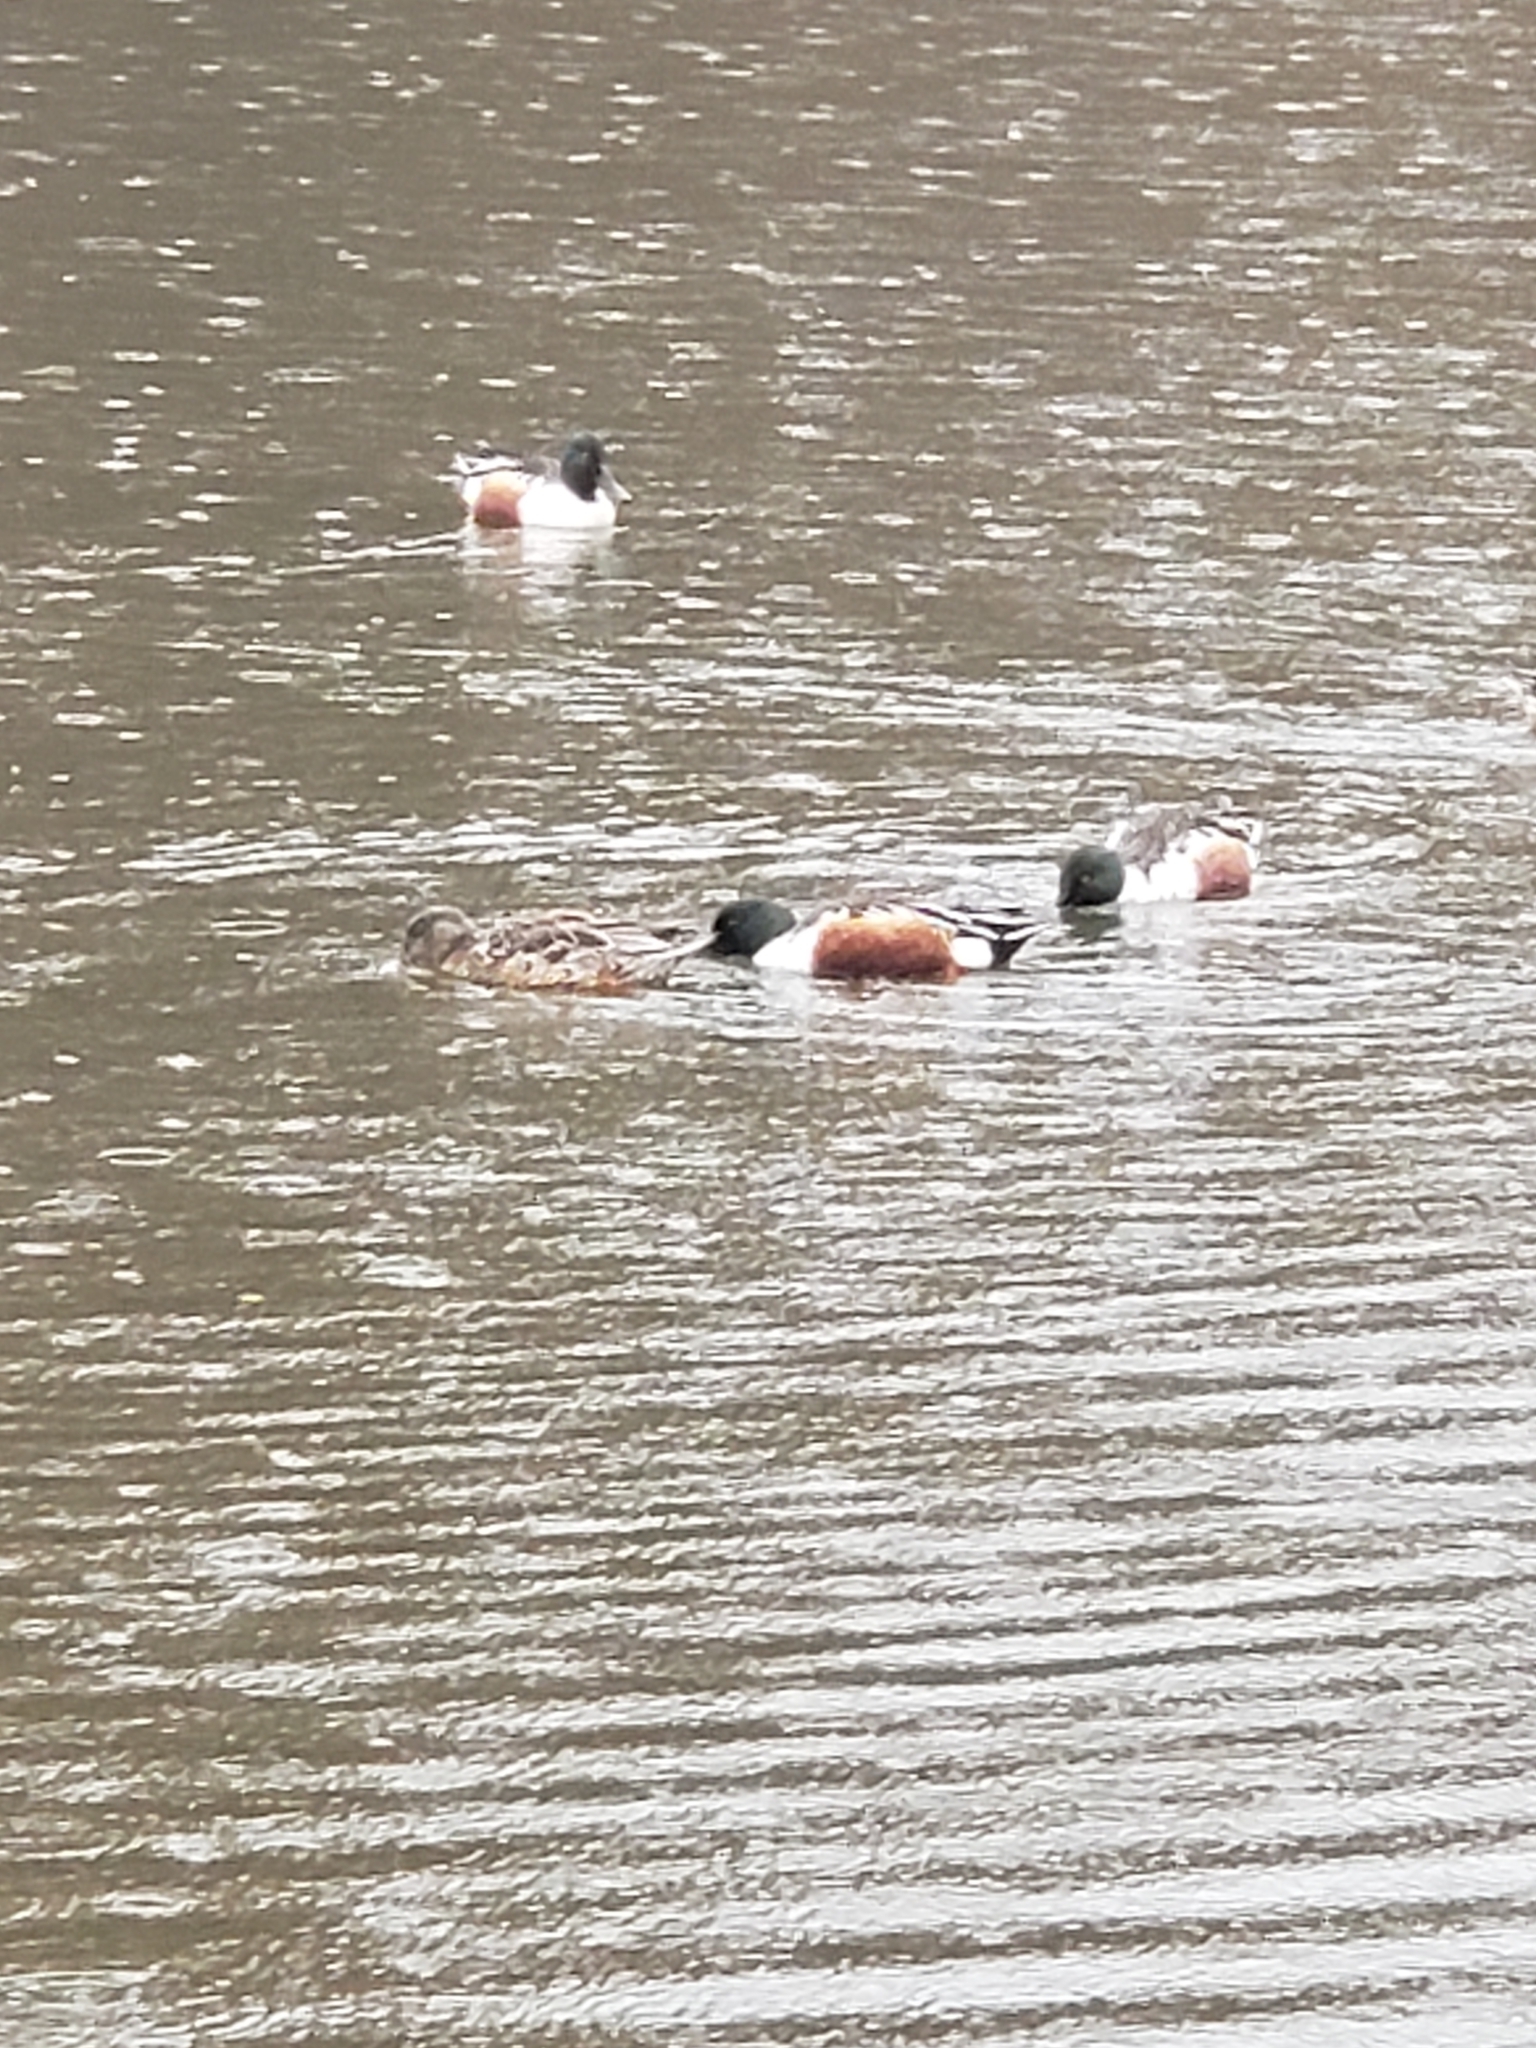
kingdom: Animalia
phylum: Chordata
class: Aves
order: Anseriformes
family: Anatidae
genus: Spatula
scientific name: Spatula clypeata
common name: Northern shoveler
